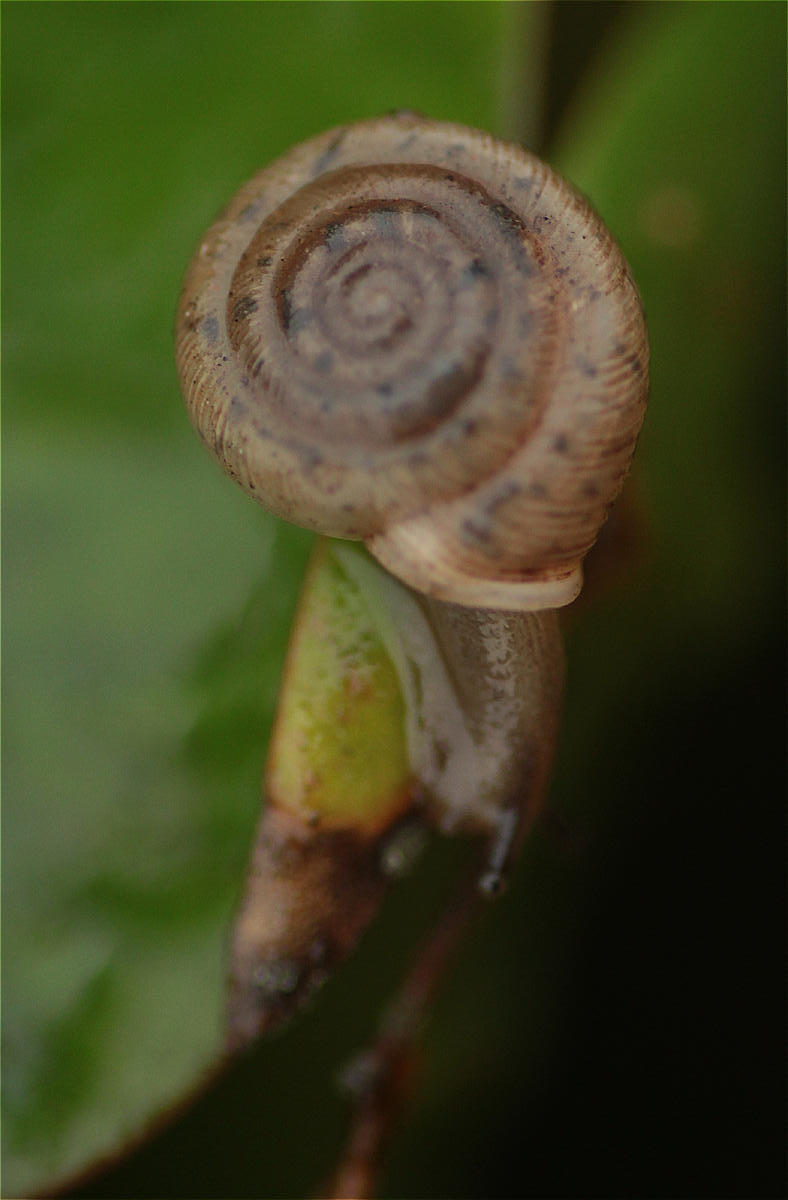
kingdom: Animalia
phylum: Mollusca
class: Gastropoda
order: Stylommatophora
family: Polygyridae
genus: Polygyra
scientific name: Polygyra cereolus
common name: Southern flatcone snail
